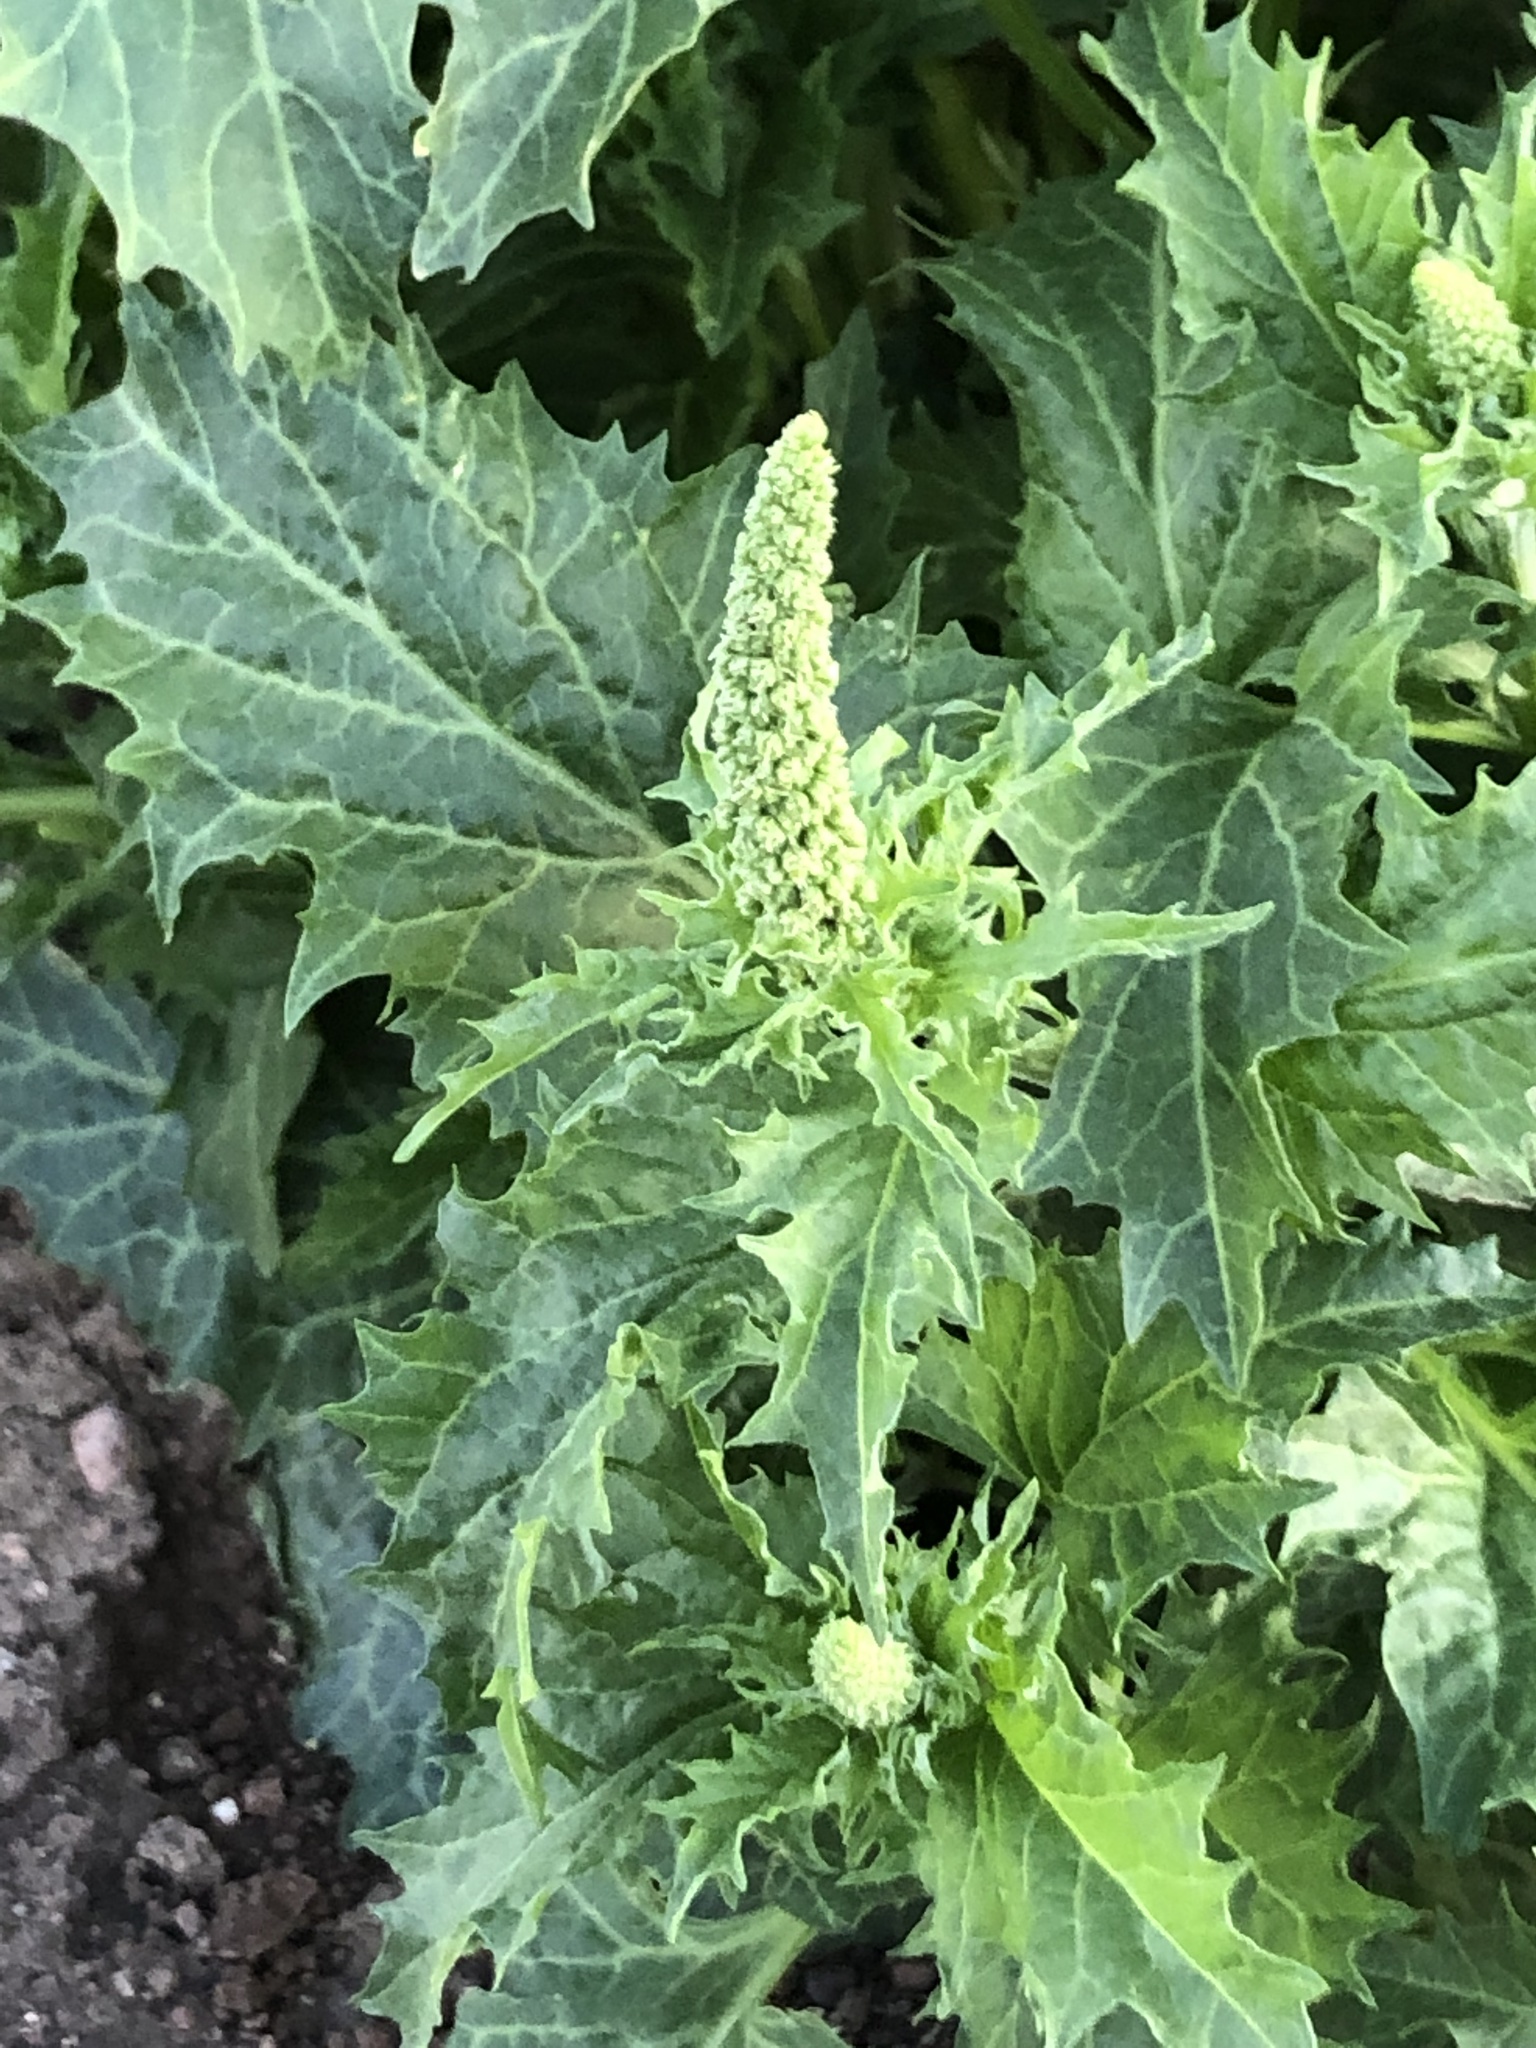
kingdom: Plantae
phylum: Tracheophyta
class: Magnoliopsida
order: Caryophyllales
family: Amaranthaceae
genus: Blitum
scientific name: Blitum californicum
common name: California goosefoot
